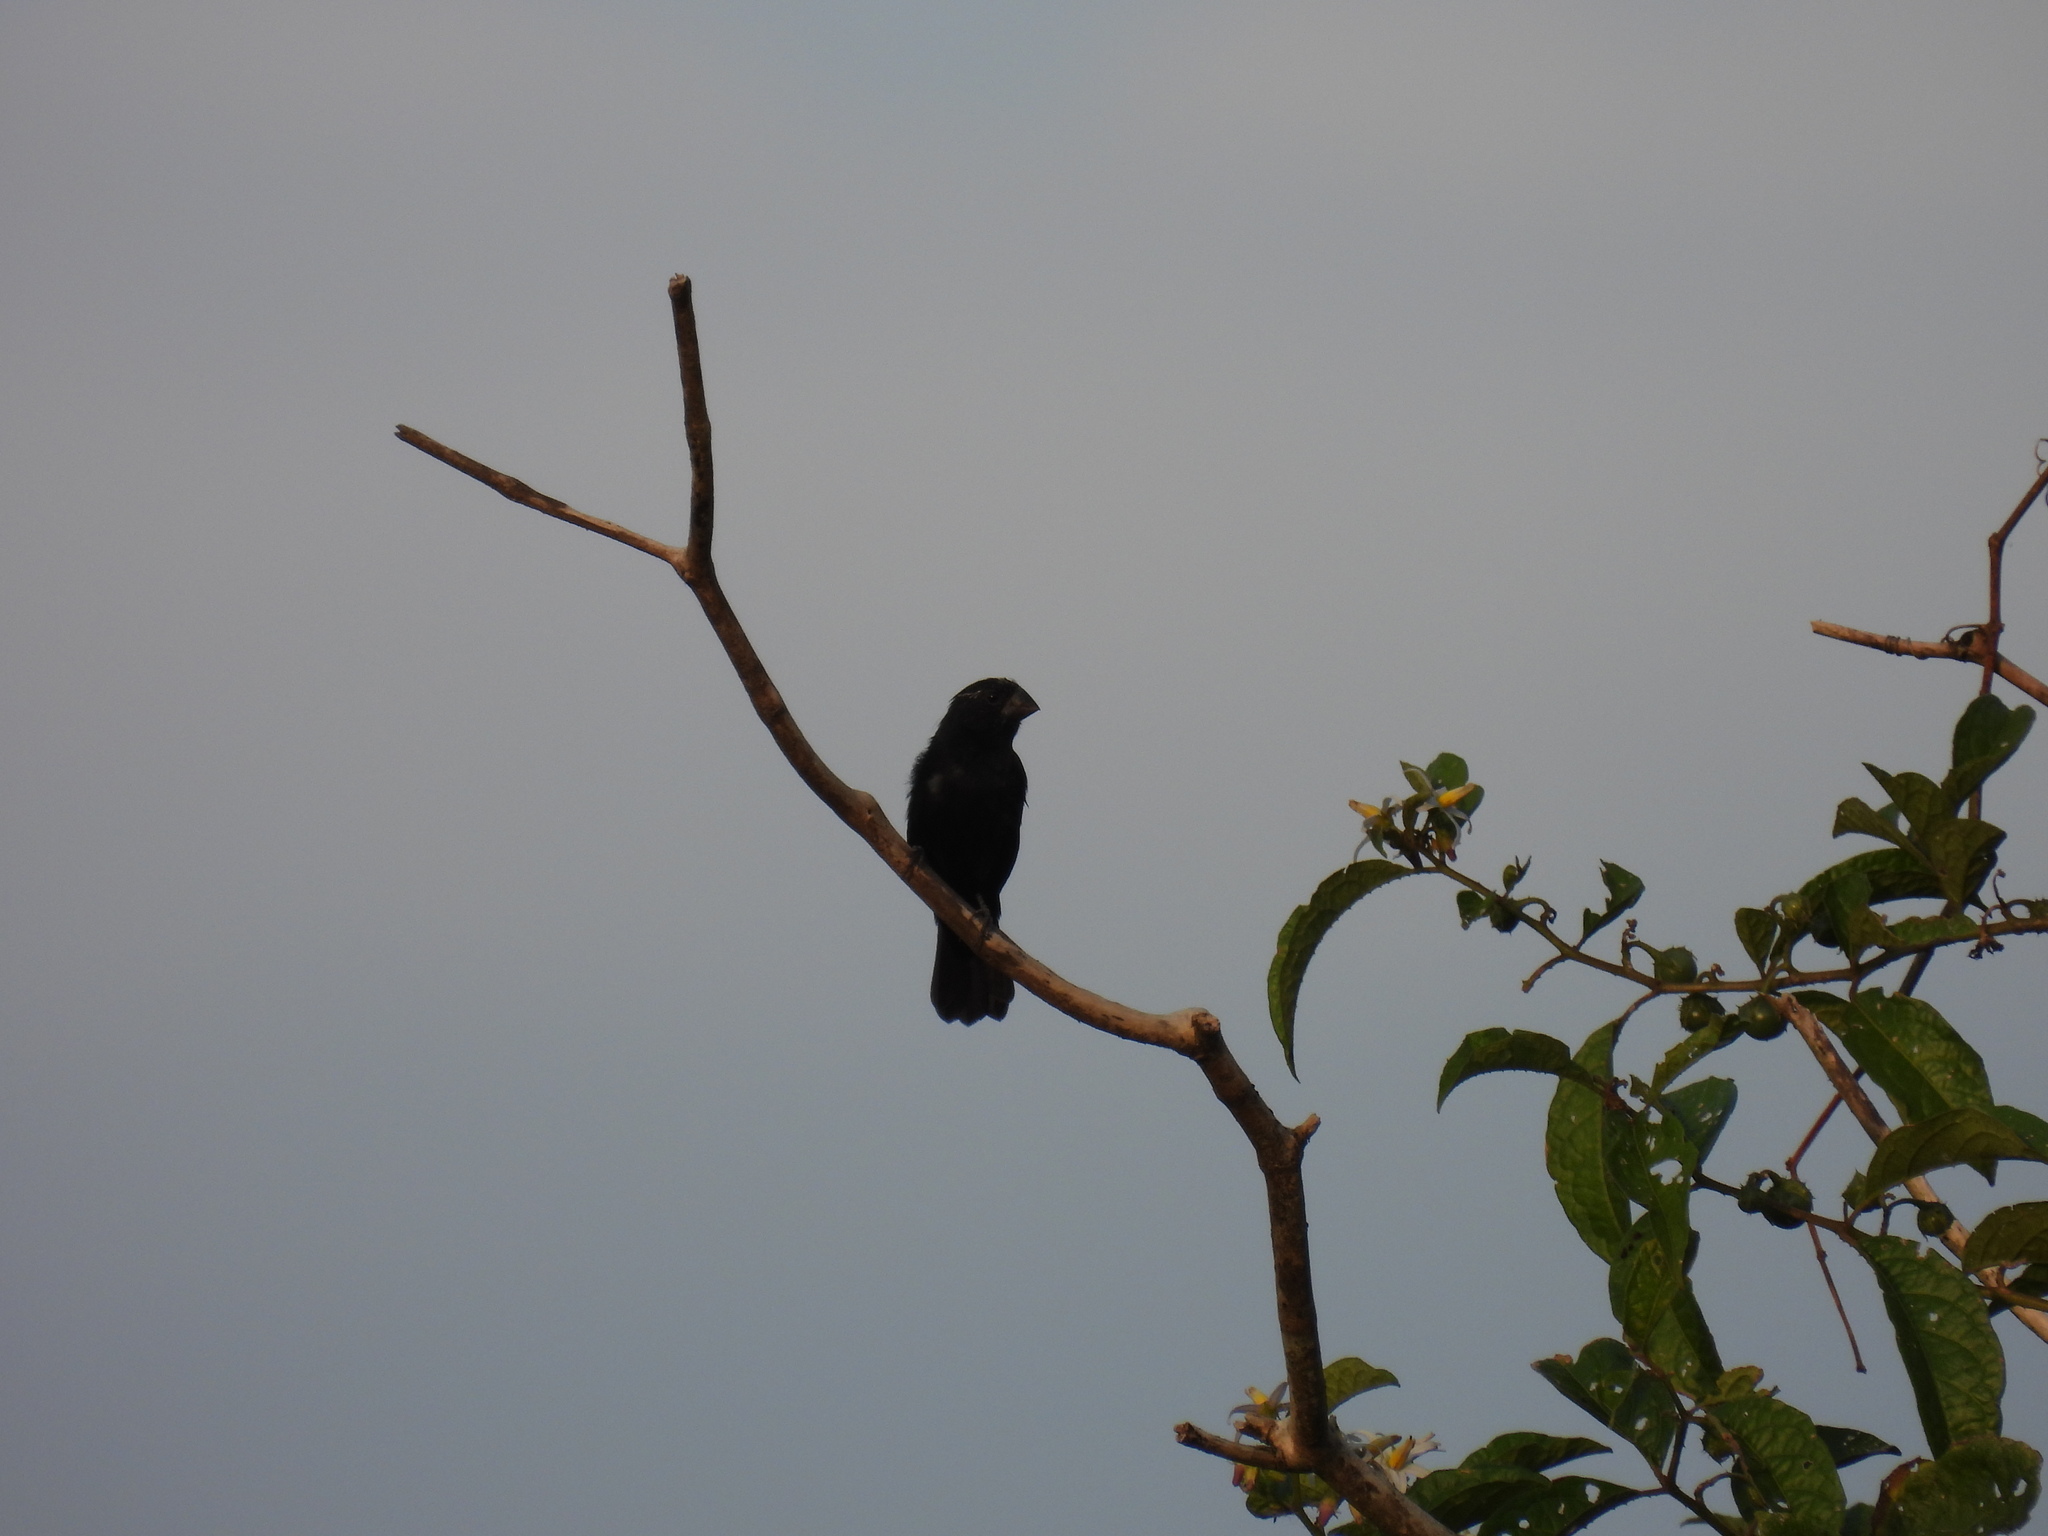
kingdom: Animalia
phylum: Chordata
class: Aves
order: Passeriformes
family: Thraupidae
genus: Sporophila
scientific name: Sporophila funerea
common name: Thick-billed seed-finch
